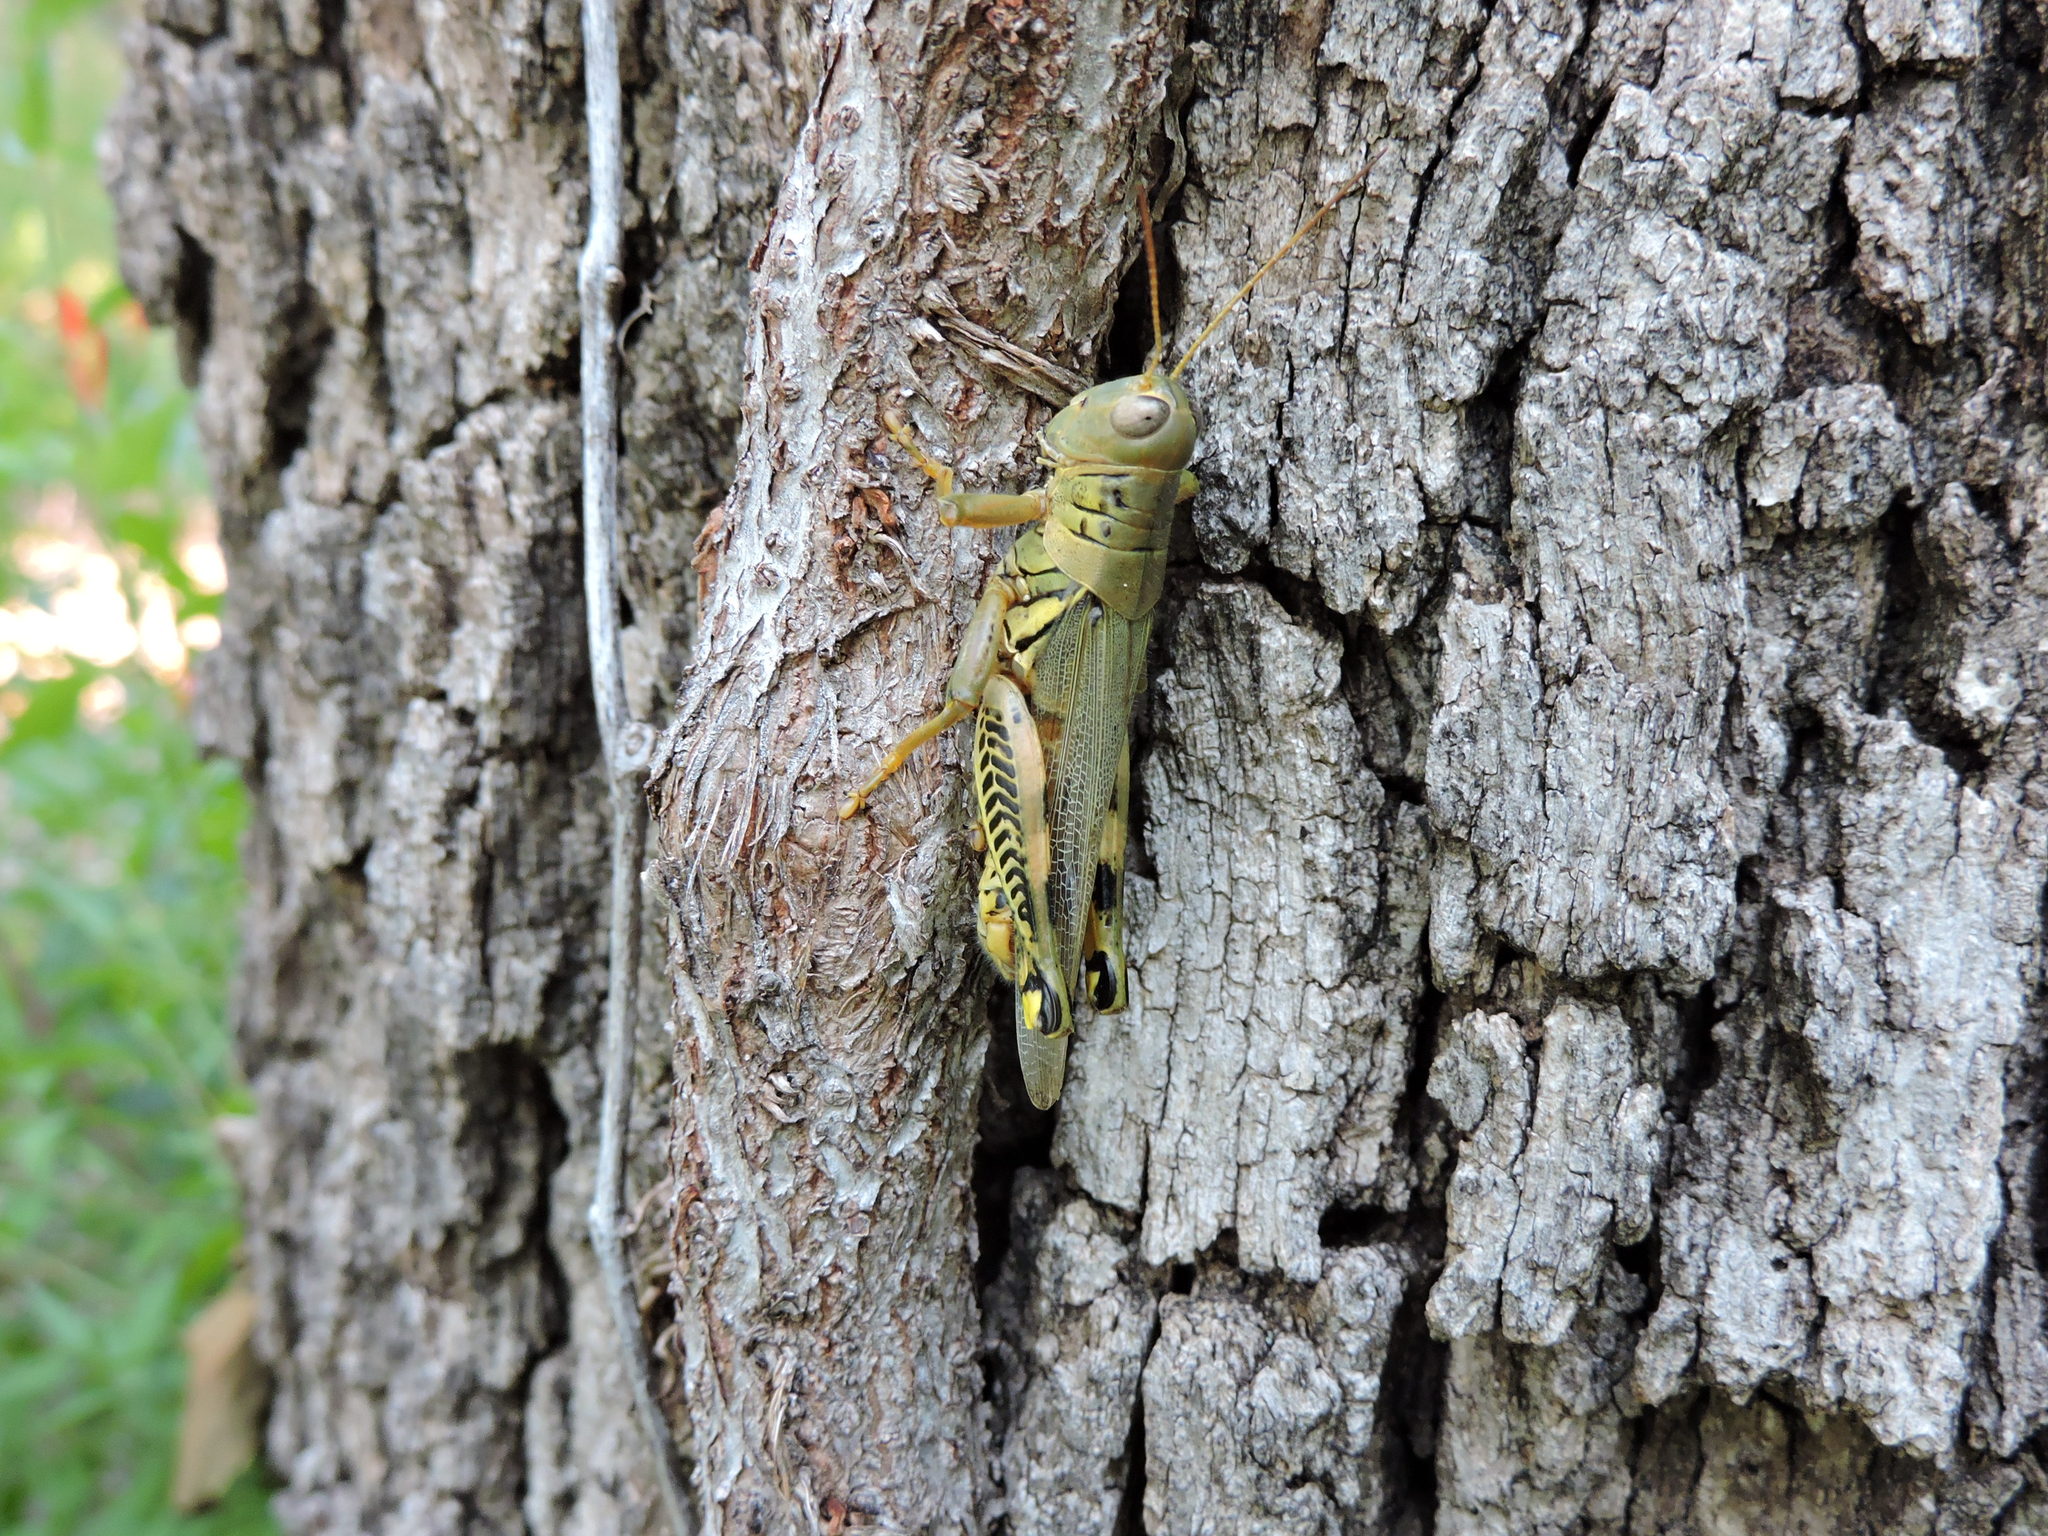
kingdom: Animalia
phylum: Arthropoda
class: Insecta
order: Orthoptera
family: Acrididae
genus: Melanoplus
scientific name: Melanoplus differentialis
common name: Differential grasshopper
